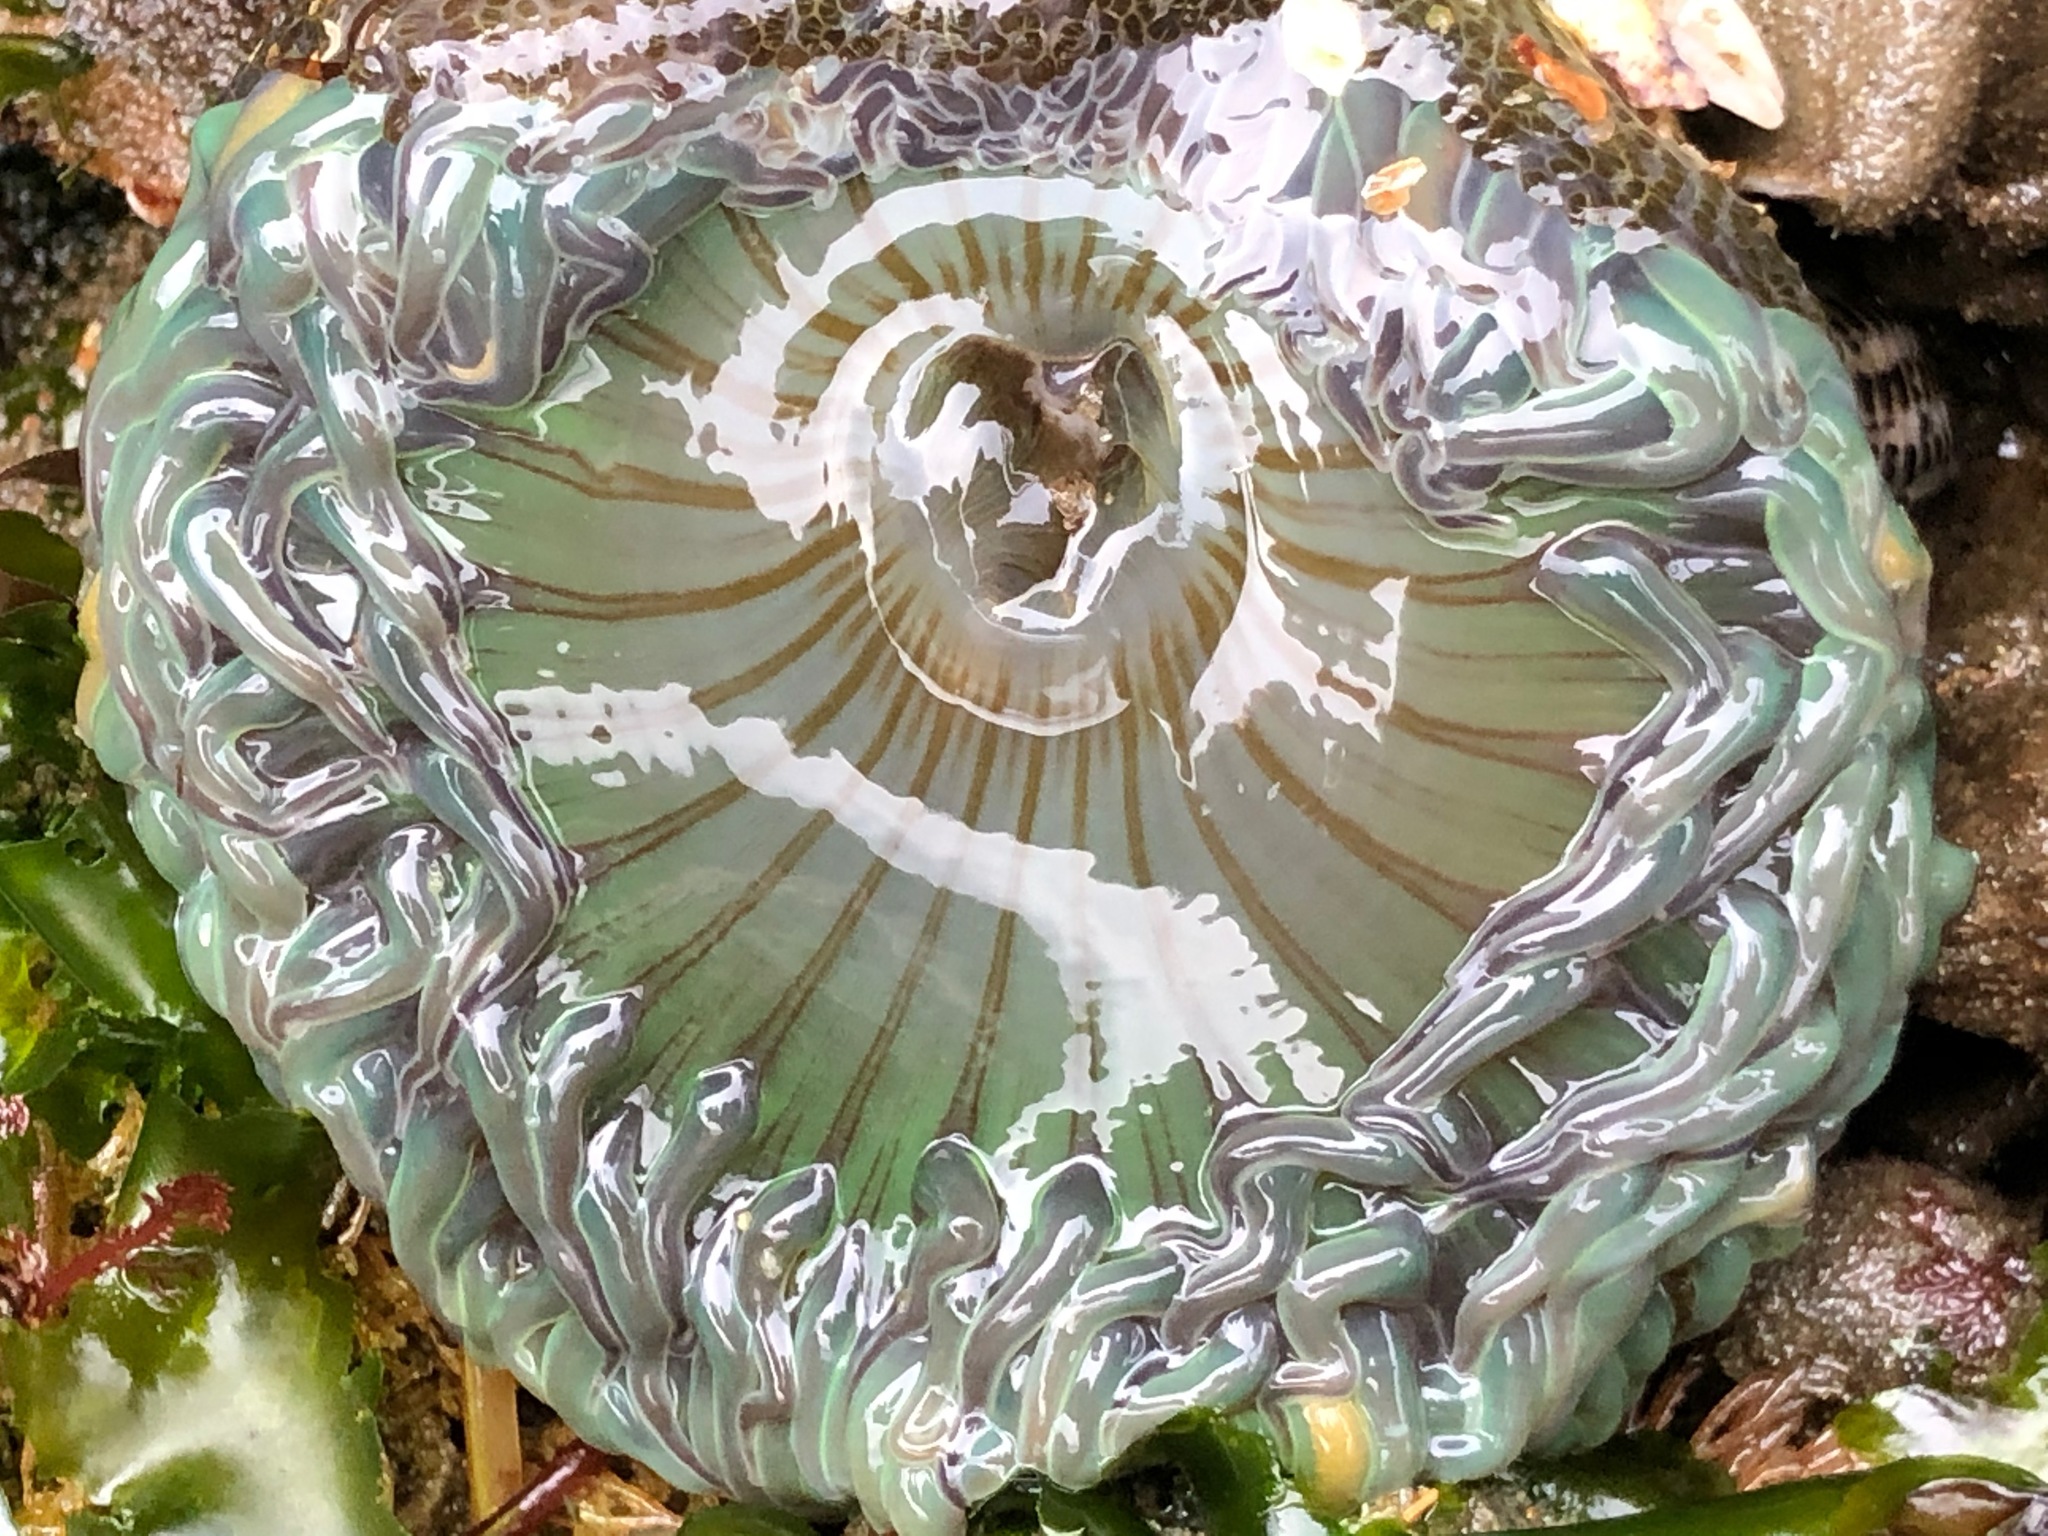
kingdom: Animalia
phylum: Cnidaria
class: Anthozoa
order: Actiniaria
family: Actiniidae
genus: Anthopleura
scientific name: Anthopleura sola
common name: Sun anemone
